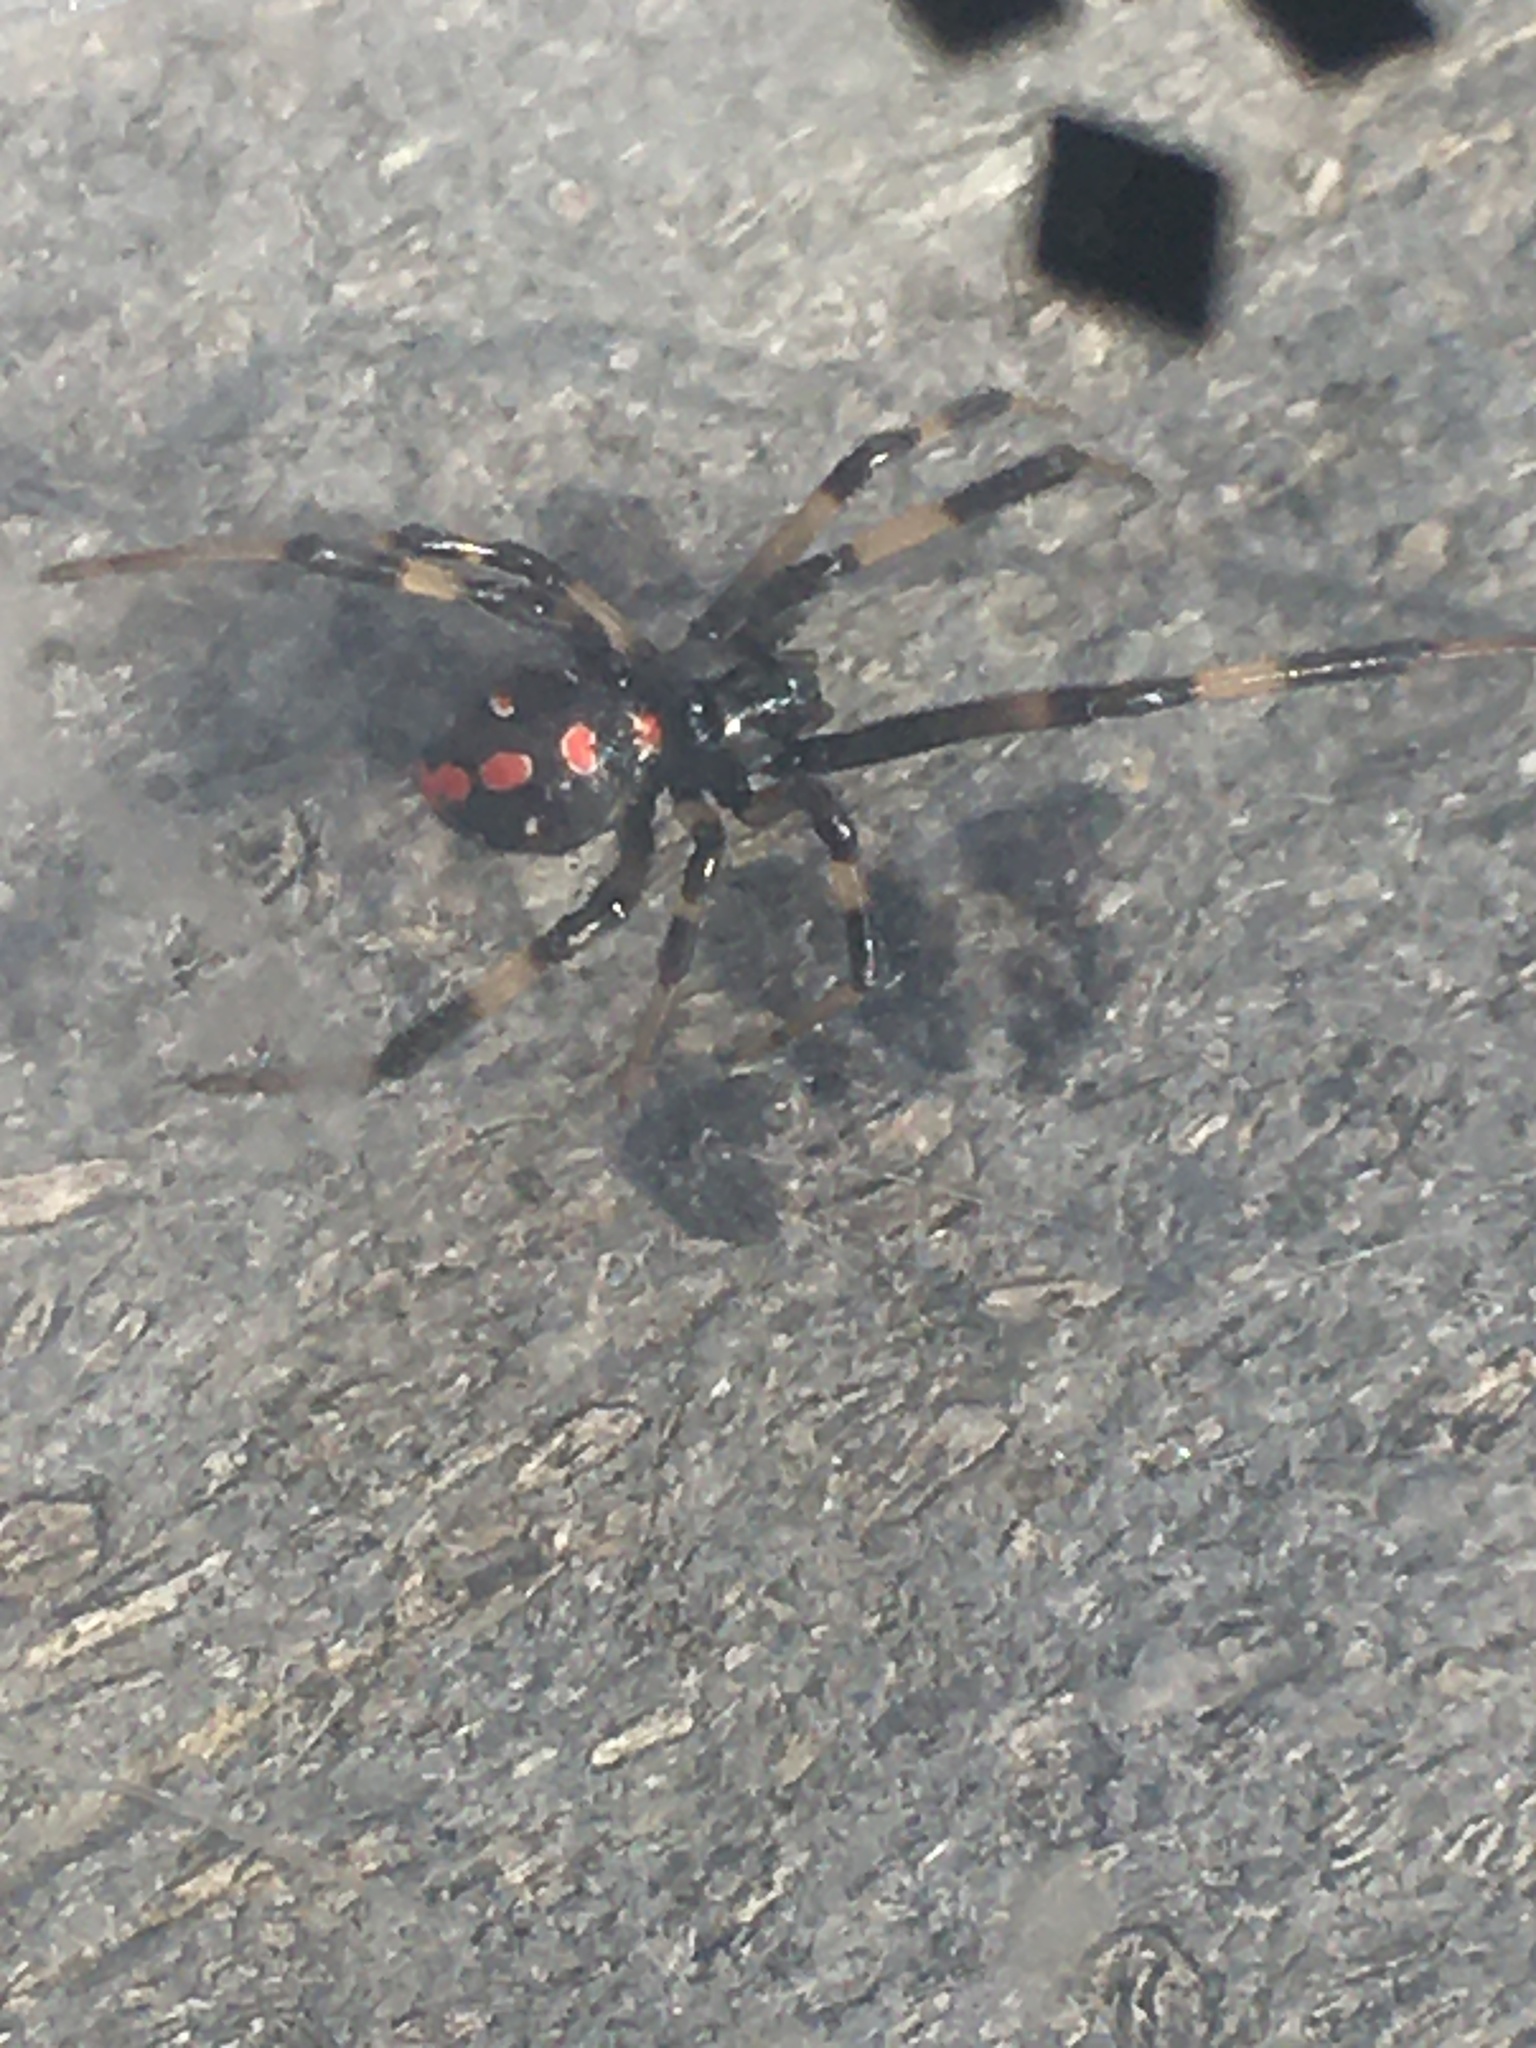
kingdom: Animalia
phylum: Arthropoda
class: Arachnida
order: Araneae
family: Theridiidae
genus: Latrodectus
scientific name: Latrodectus mactans
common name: Cobweb spiders
